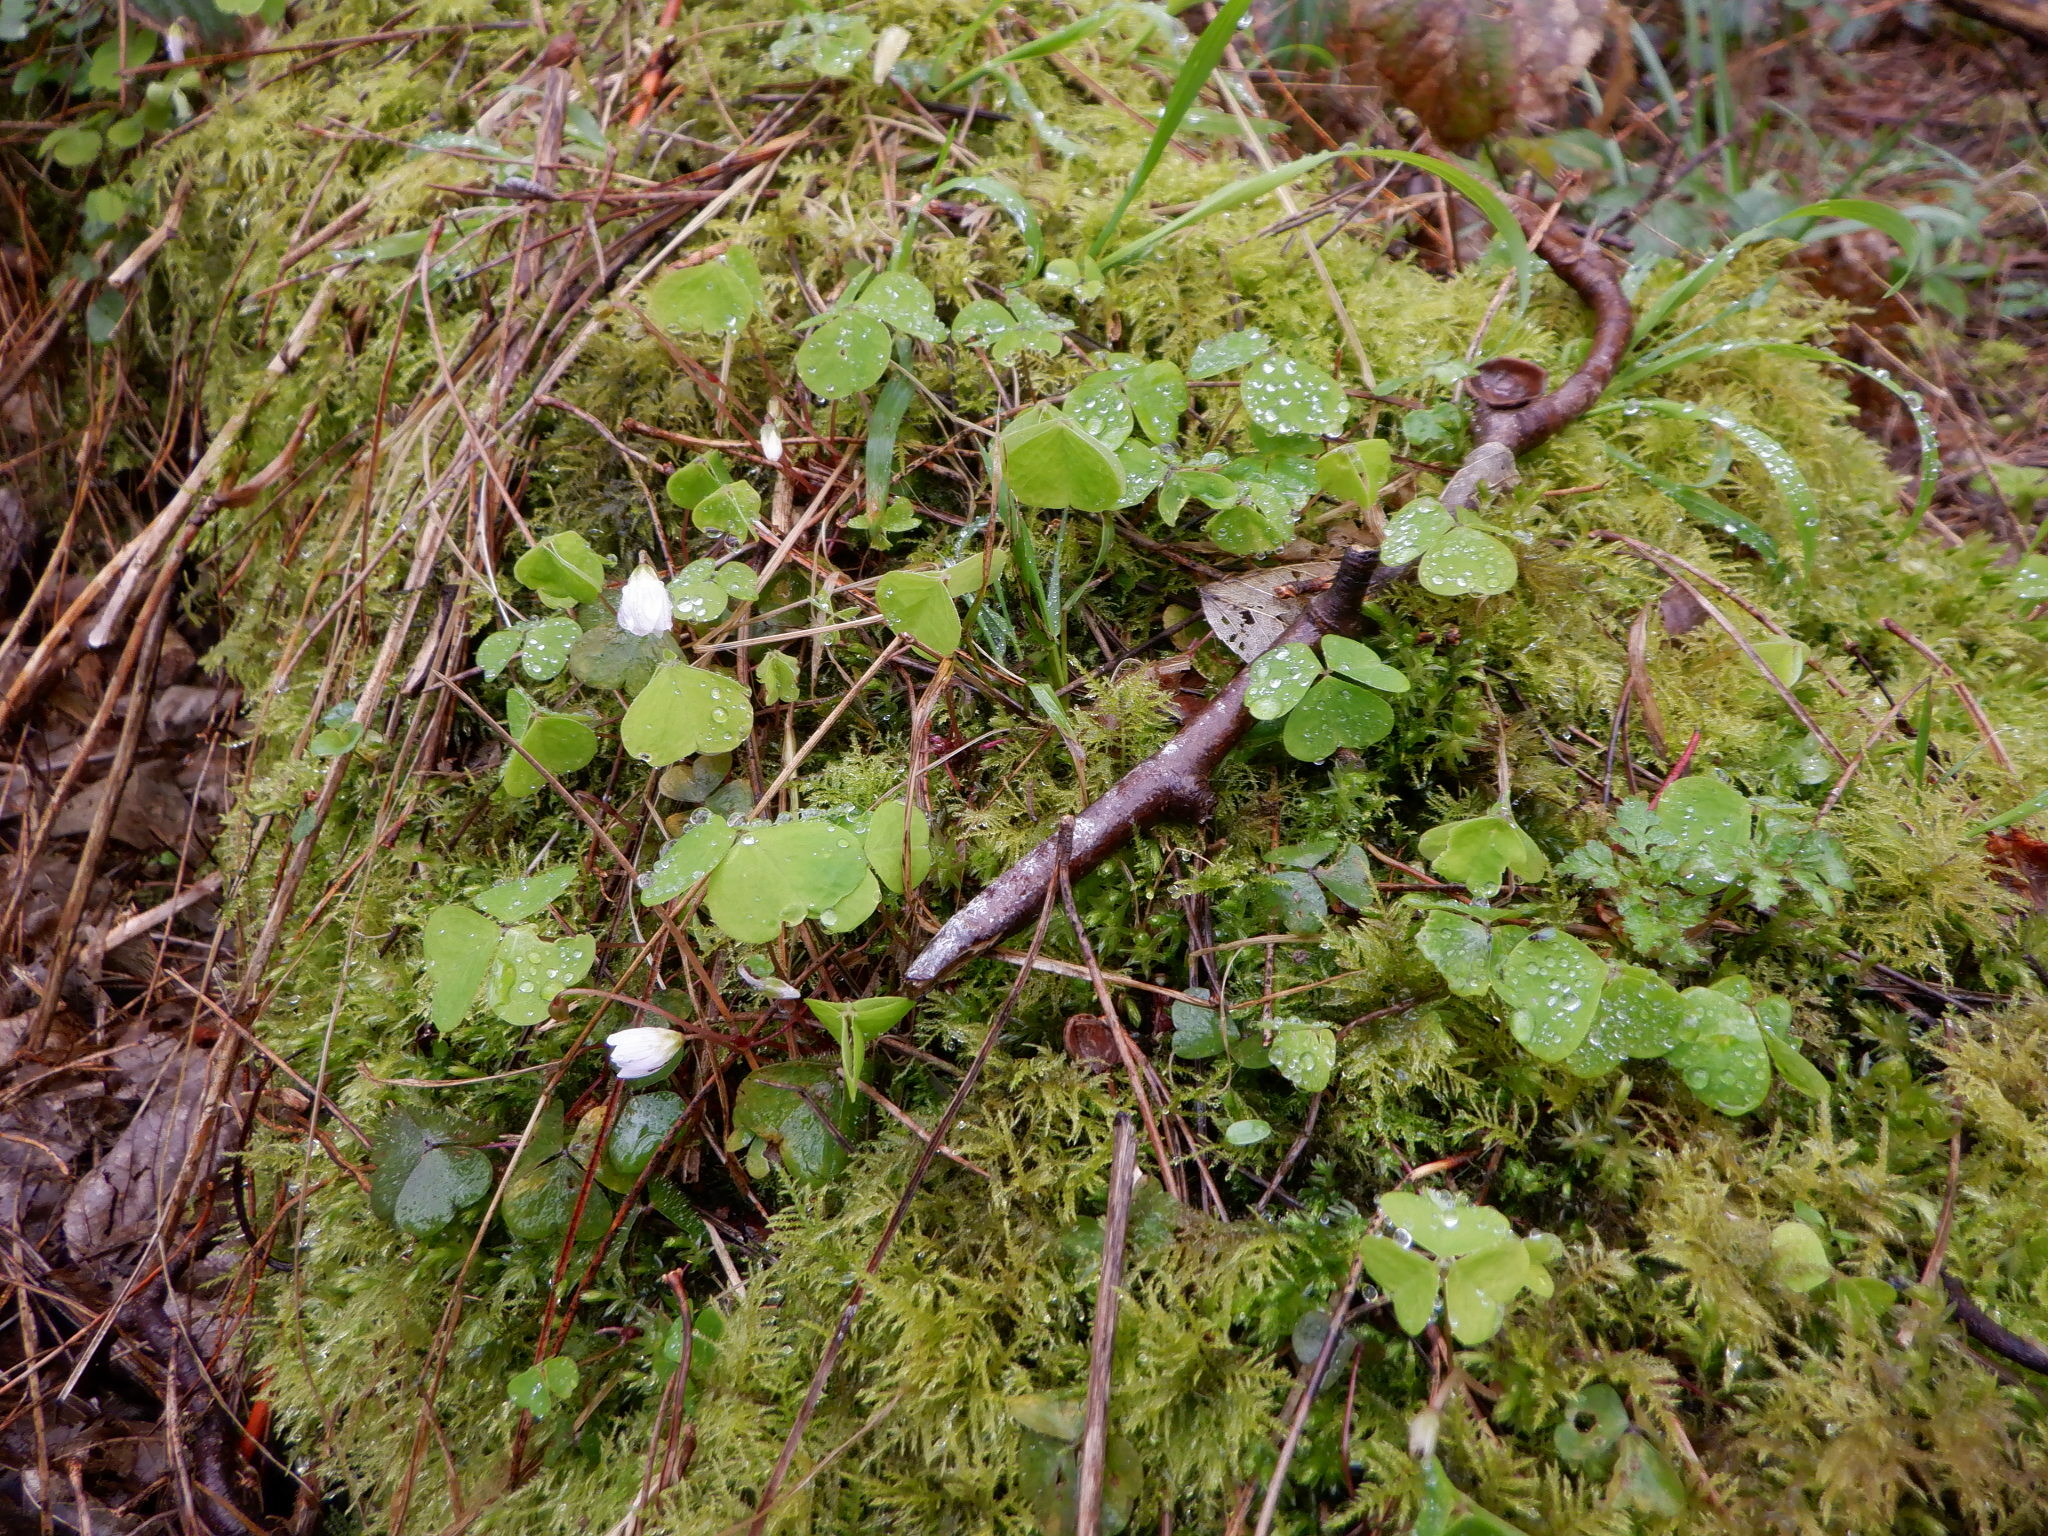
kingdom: Plantae
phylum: Tracheophyta
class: Magnoliopsida
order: Oxalidales
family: Oxalidaceae
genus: Oxalis
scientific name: Oxalis acetosella
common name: Wood-sorrel
